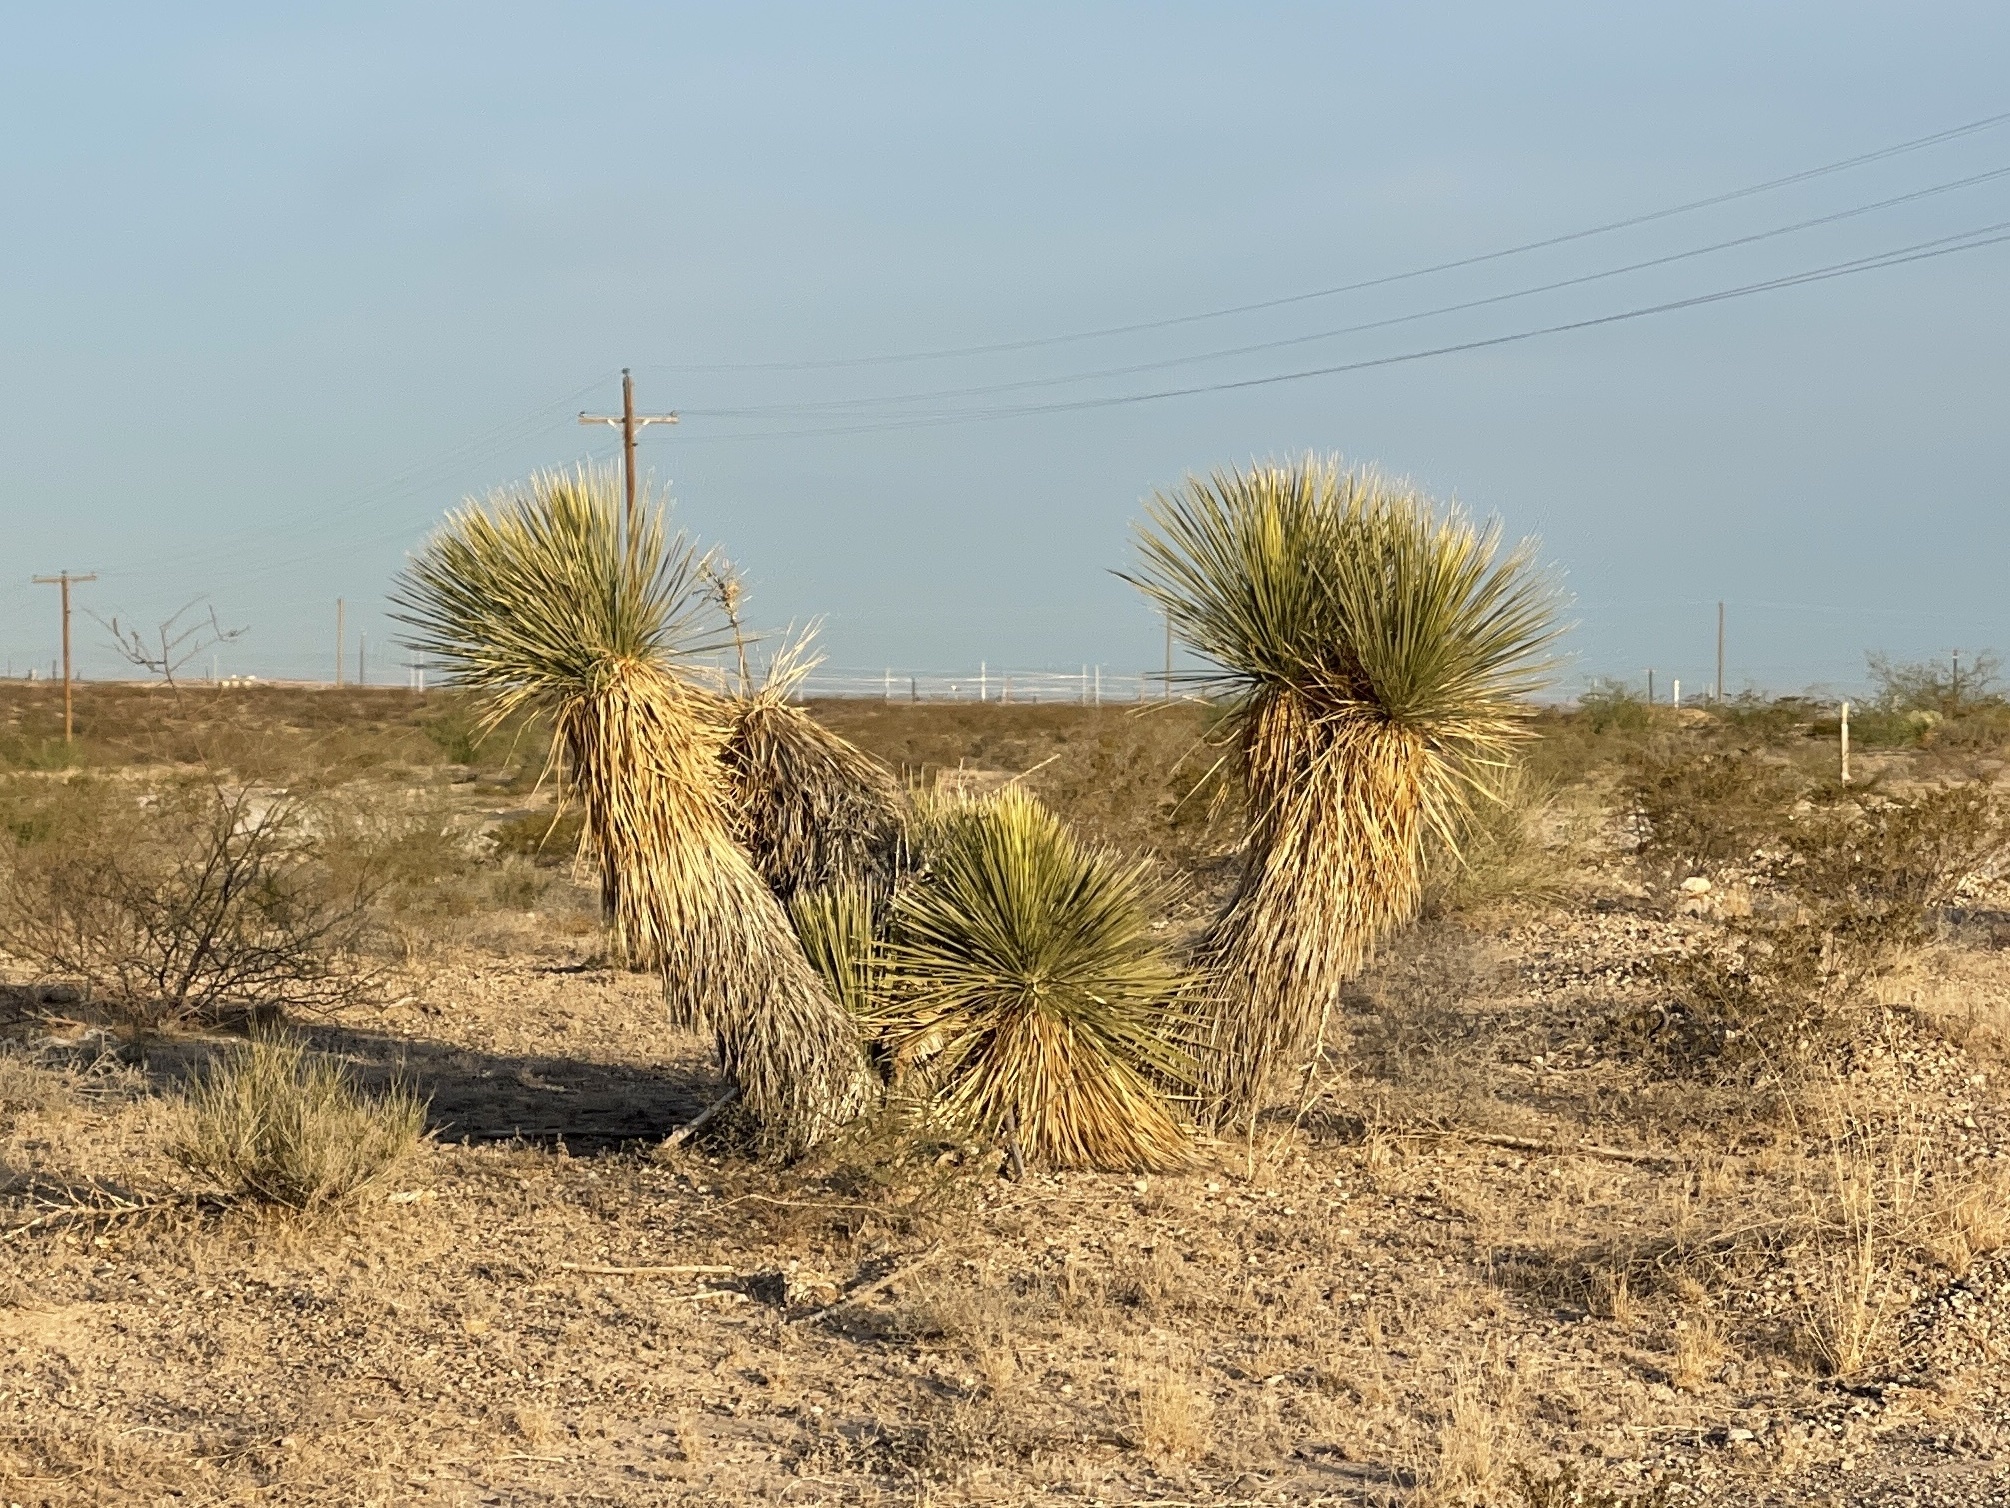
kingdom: Plantae
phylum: Tracheophyta
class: Liliopsida
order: Asparagales
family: Asparagaceae
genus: Yucca
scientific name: Yucca elata
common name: Palmella
